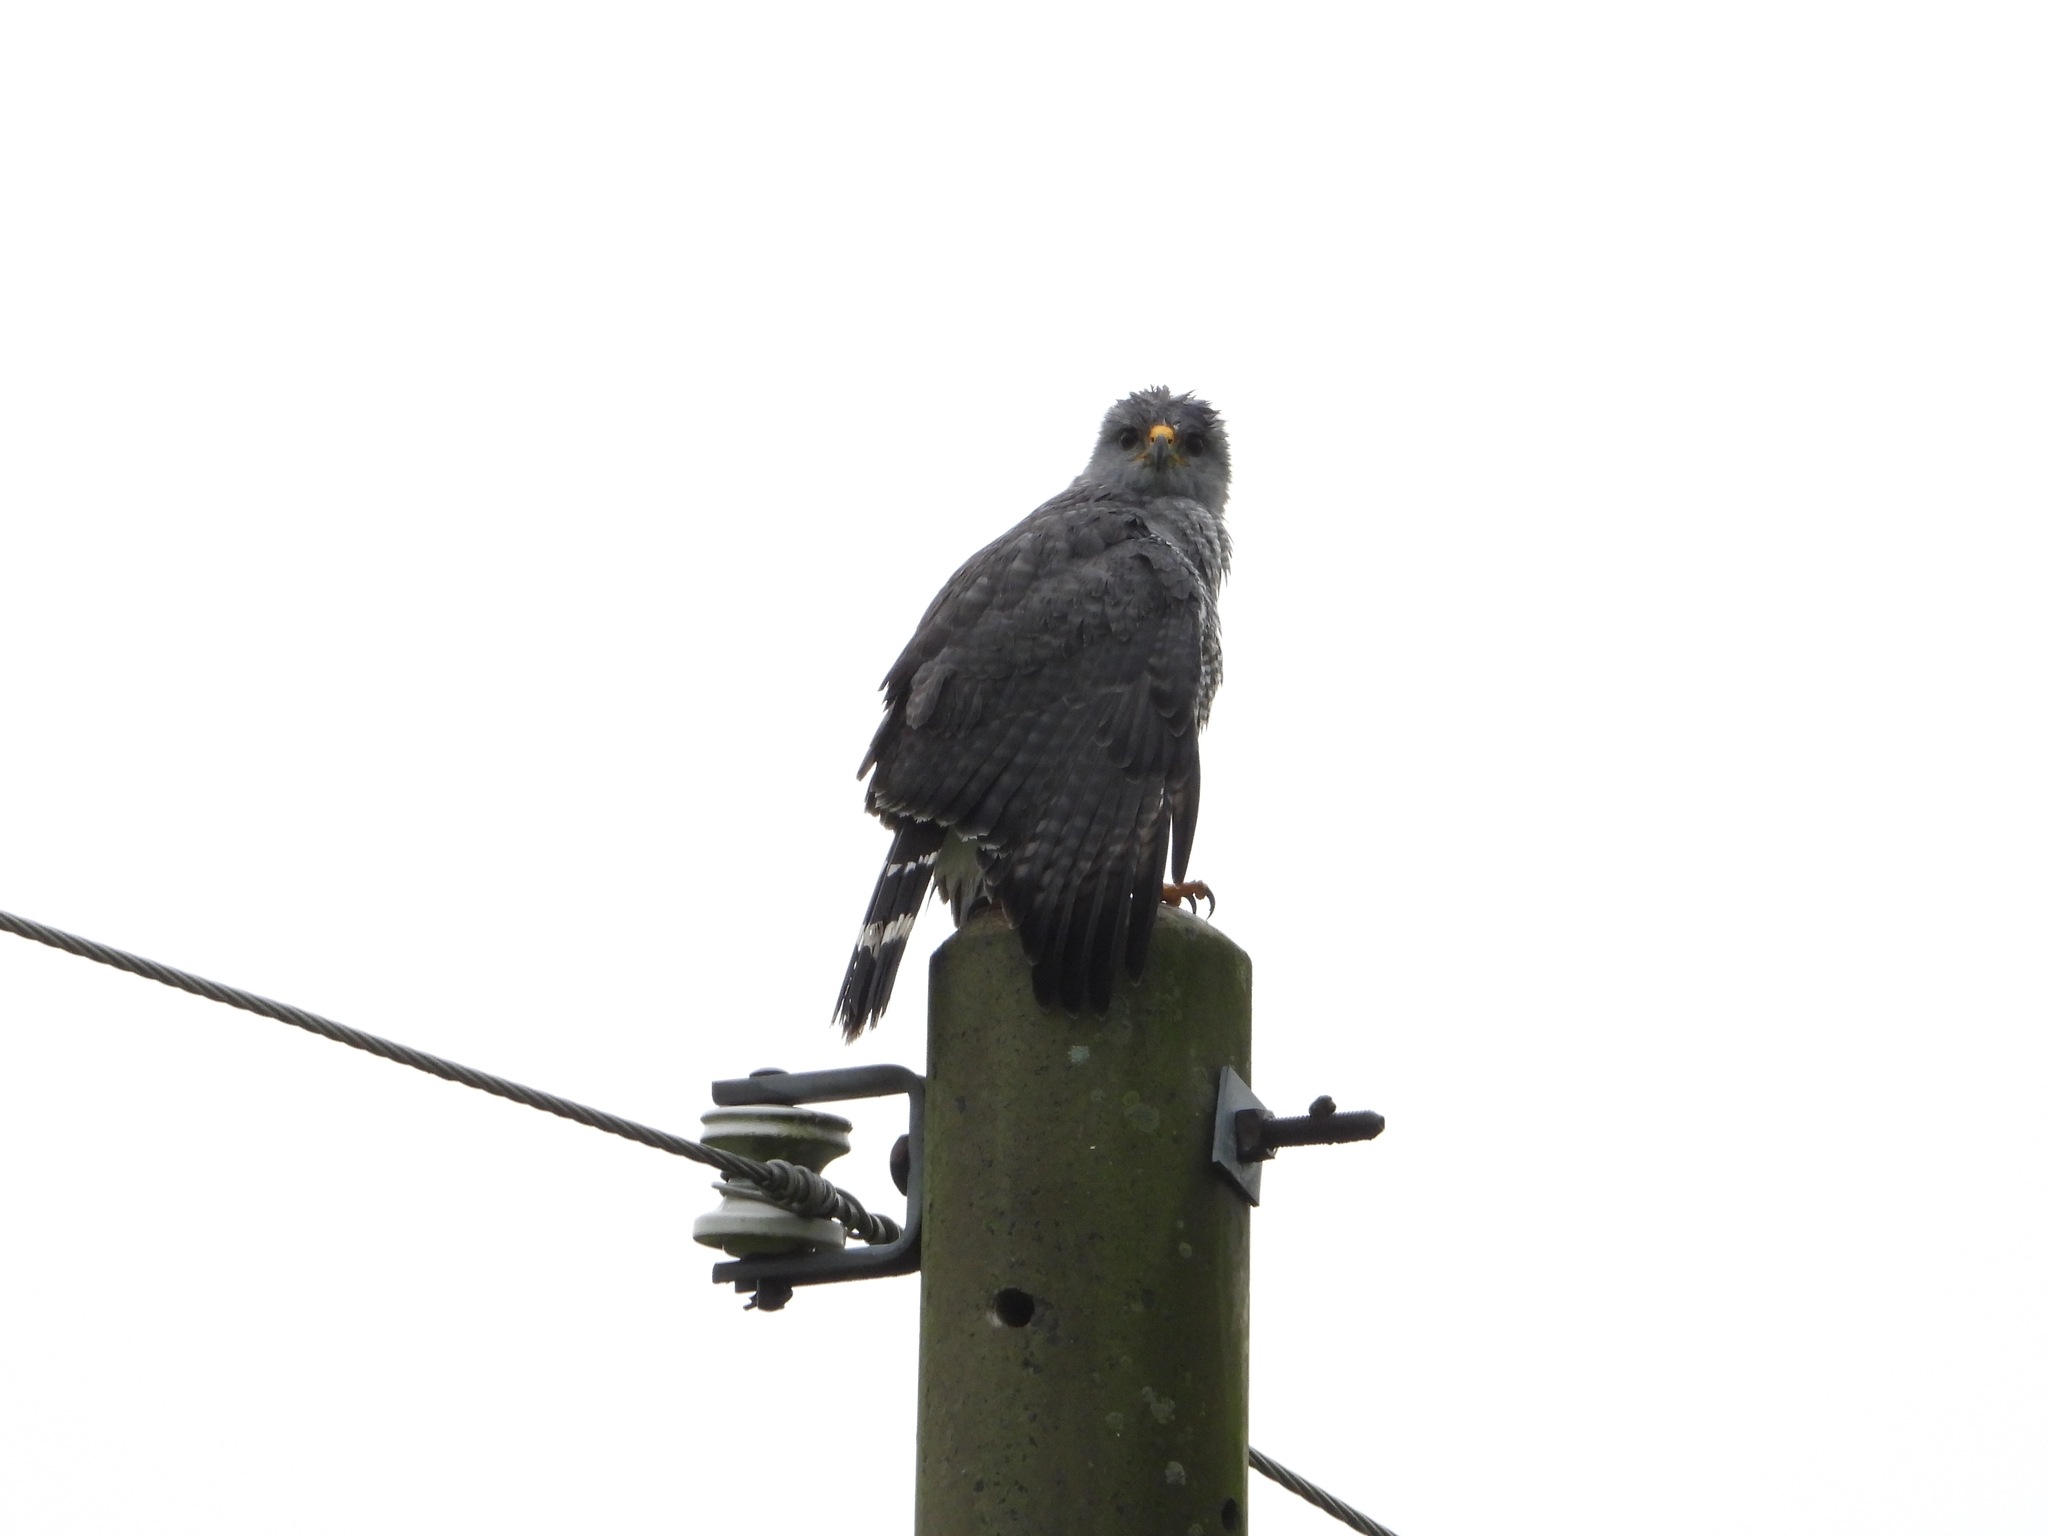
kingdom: Animalia
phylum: Chordata
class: Aves
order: Accipitriformes
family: Accipitridae
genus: Buteo
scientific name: Buteo nitidus
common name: Grey-lined hawk
